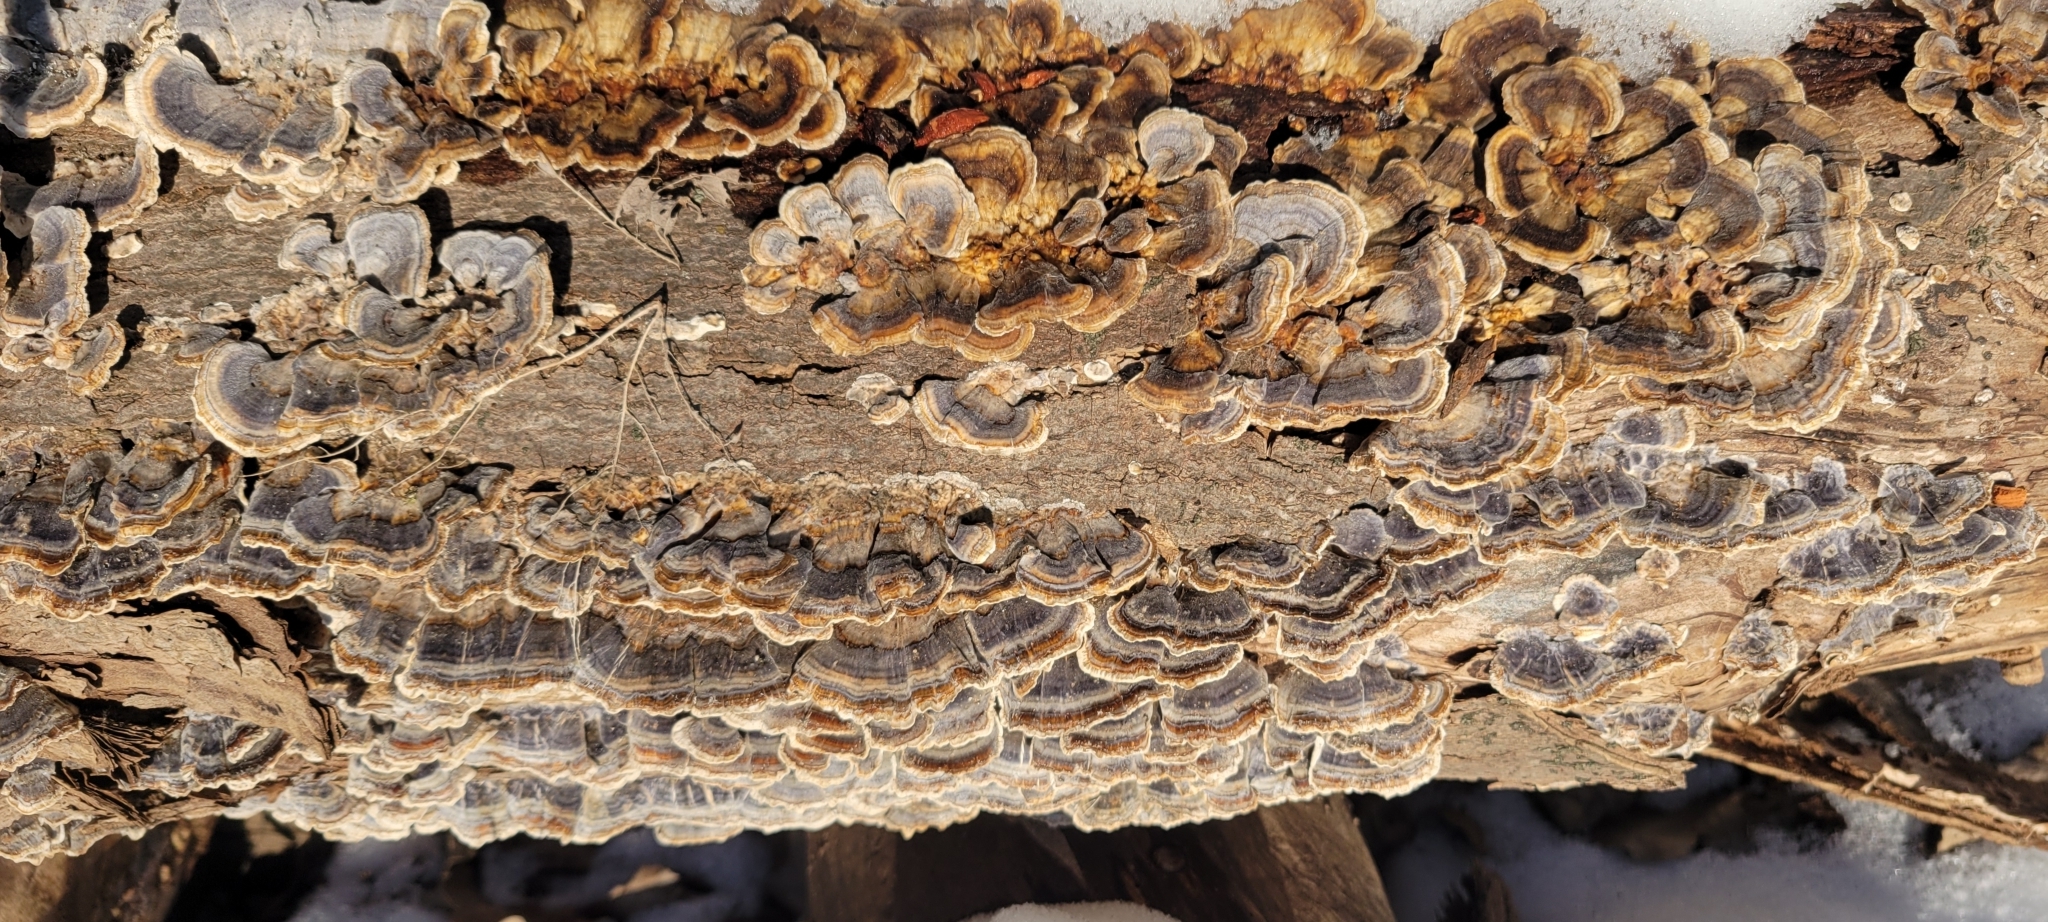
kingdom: Fungi
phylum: Basidiomycota
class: Agaricomycetes
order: Polyporales
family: Polyporaceae
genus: Trametes
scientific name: Trametes versicolor
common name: Turkeytail
